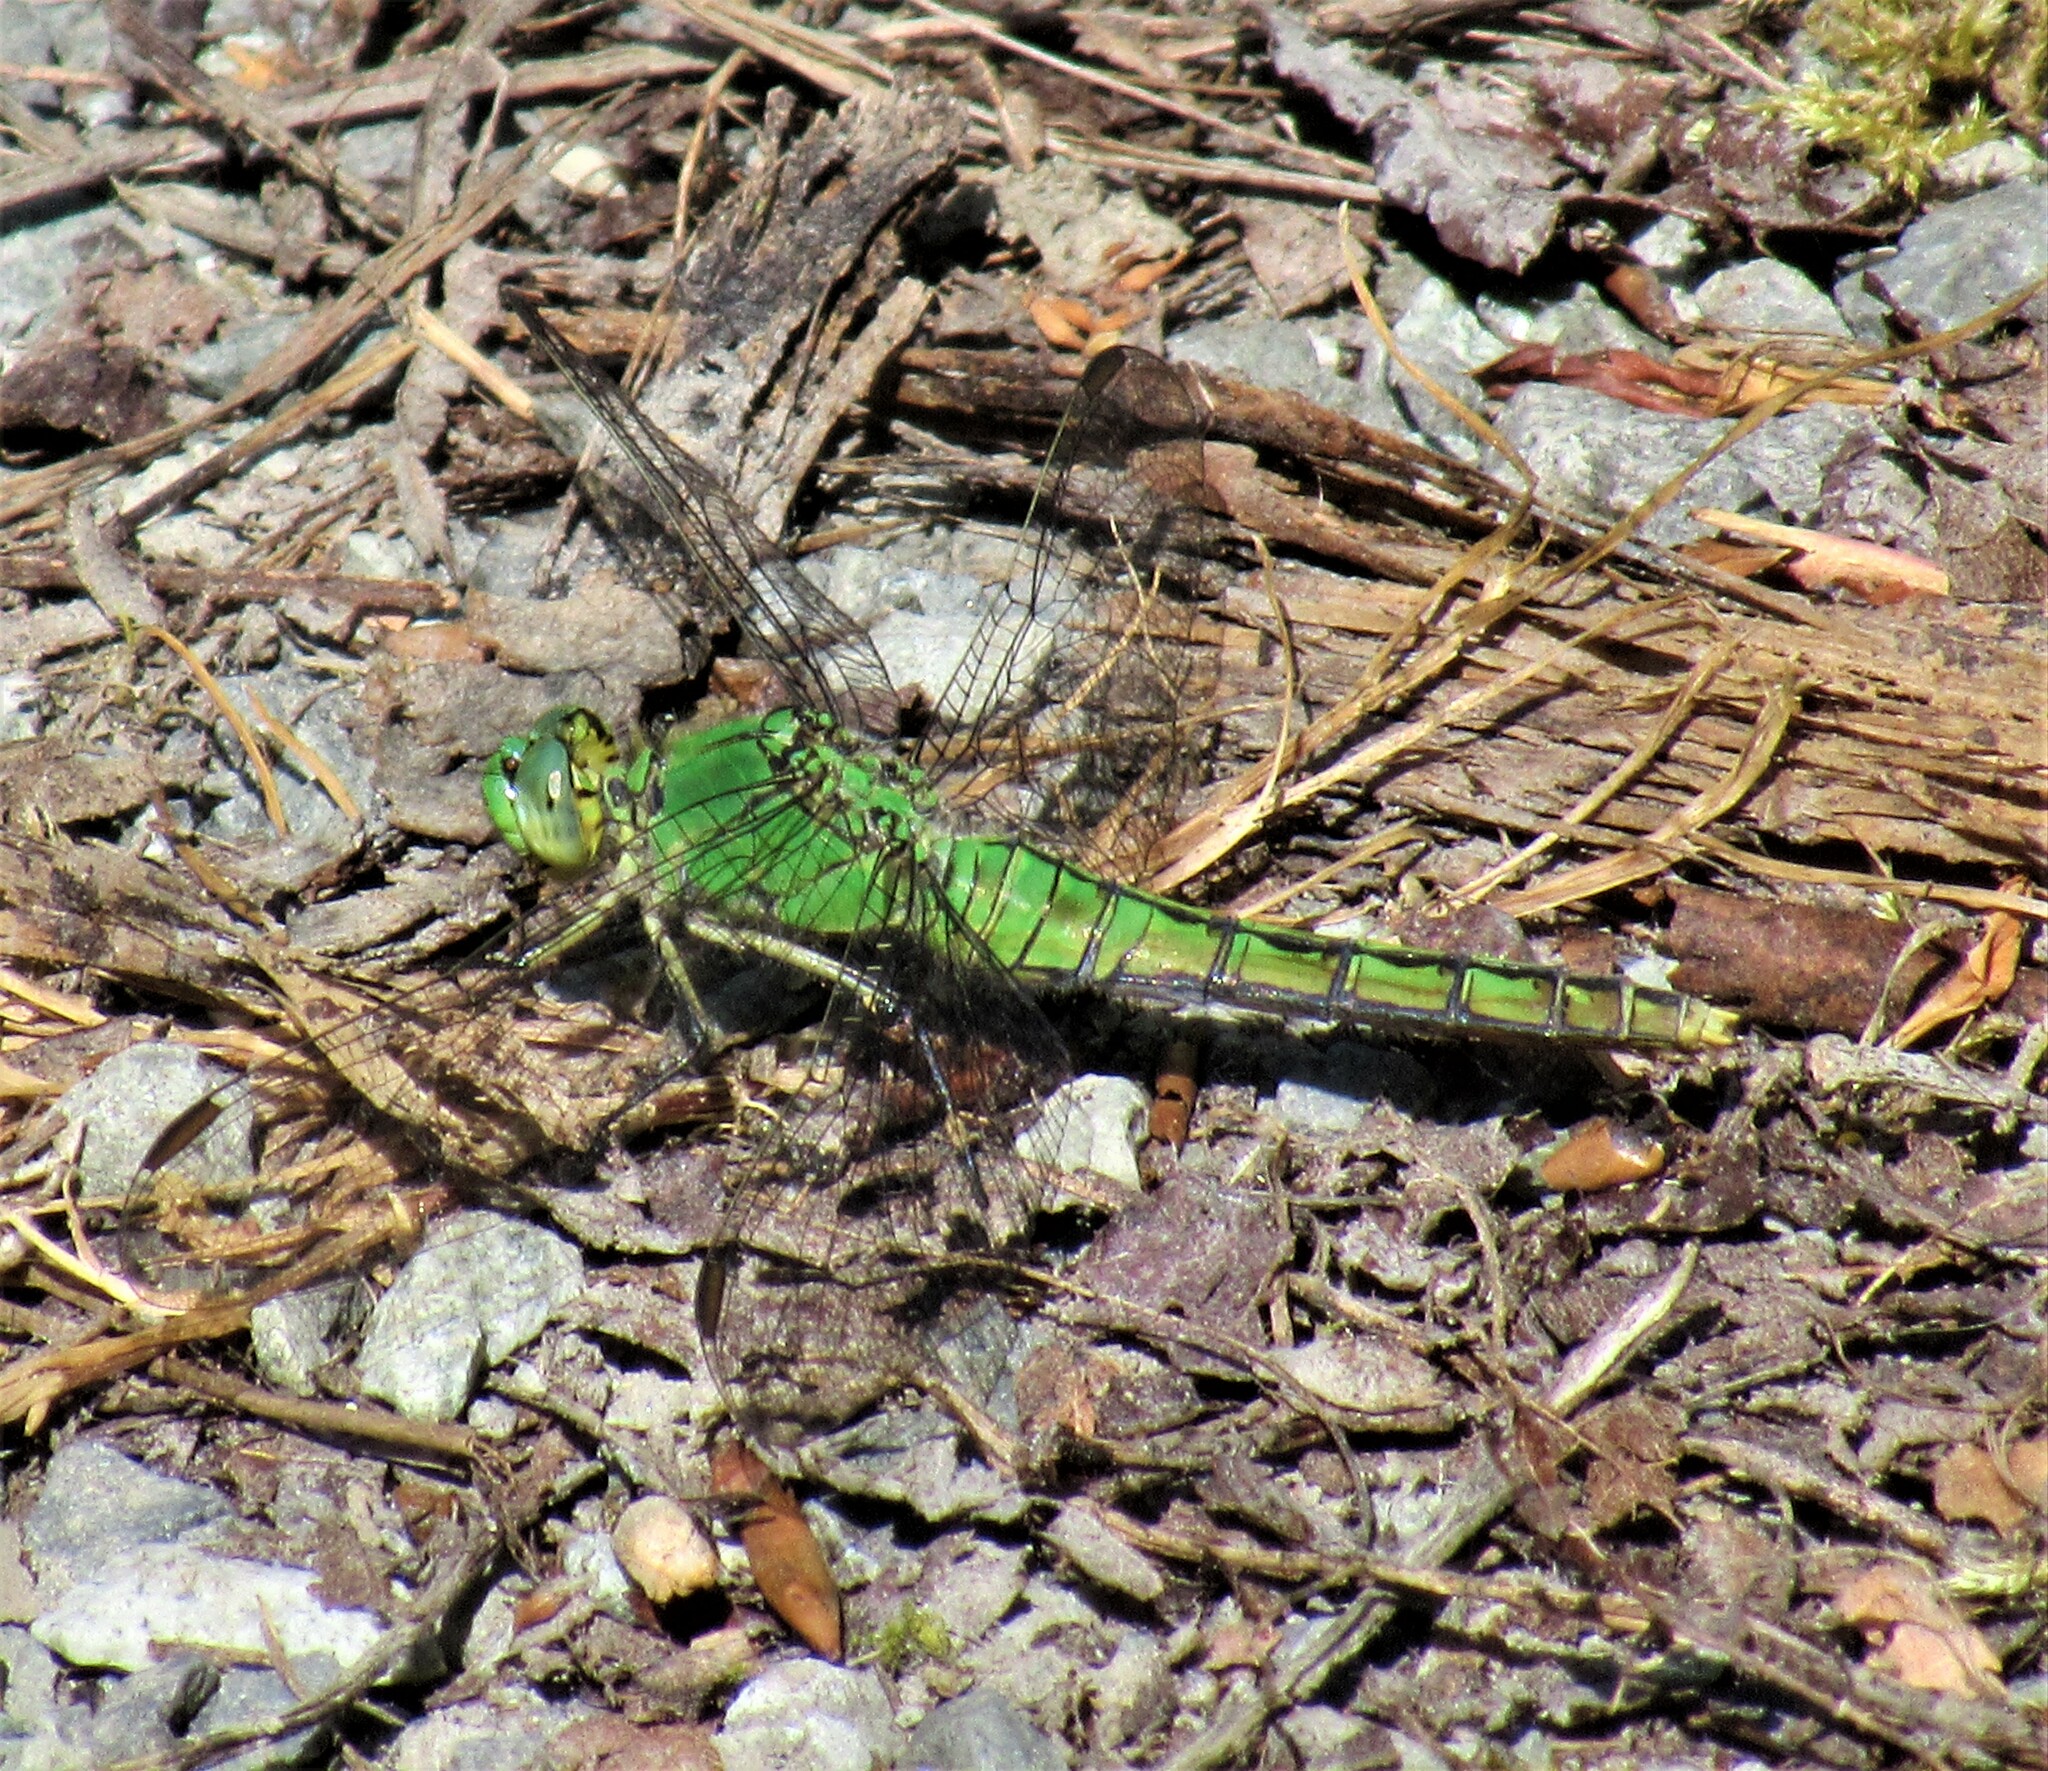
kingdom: Animalia
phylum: Arthropoda
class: Insecta
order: Odonata
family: Libellulidae
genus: Erythemis
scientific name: Erythemis collocata
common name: Western pondhawk
